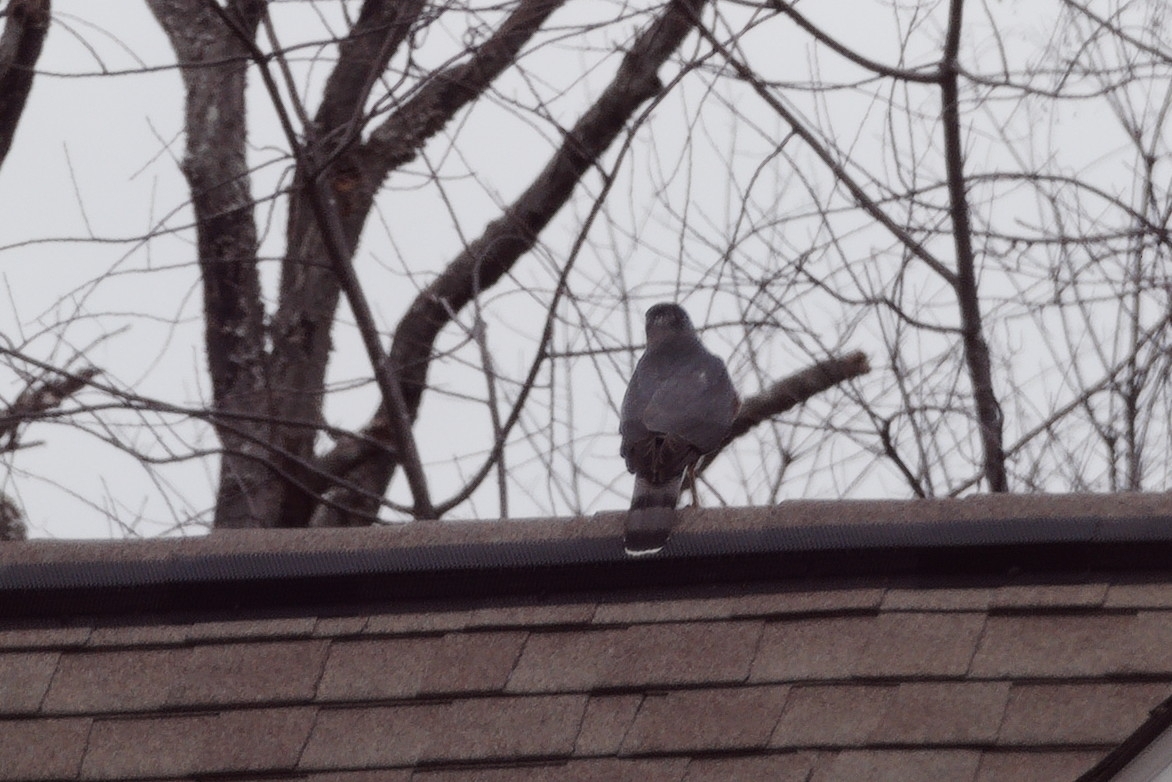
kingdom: Animalia
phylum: Chordata
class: Aves
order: Accipitriformes
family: Accipitridae
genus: Accipiter
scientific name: Accipiter cooperii
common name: Cooper's hawk
